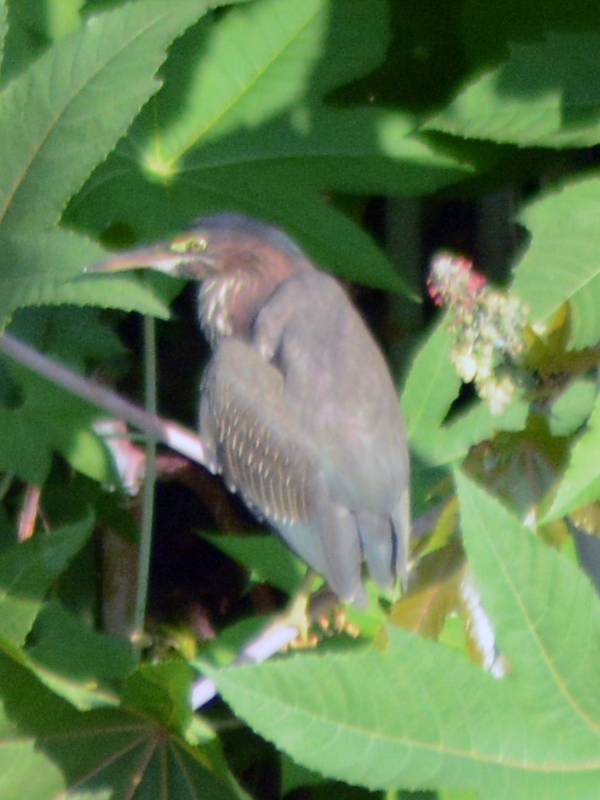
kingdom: Animalia
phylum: Chordata
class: Aves
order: Pelecaniformes
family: Ardeidae
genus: Butorides
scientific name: Butorides virescens
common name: Green heron
